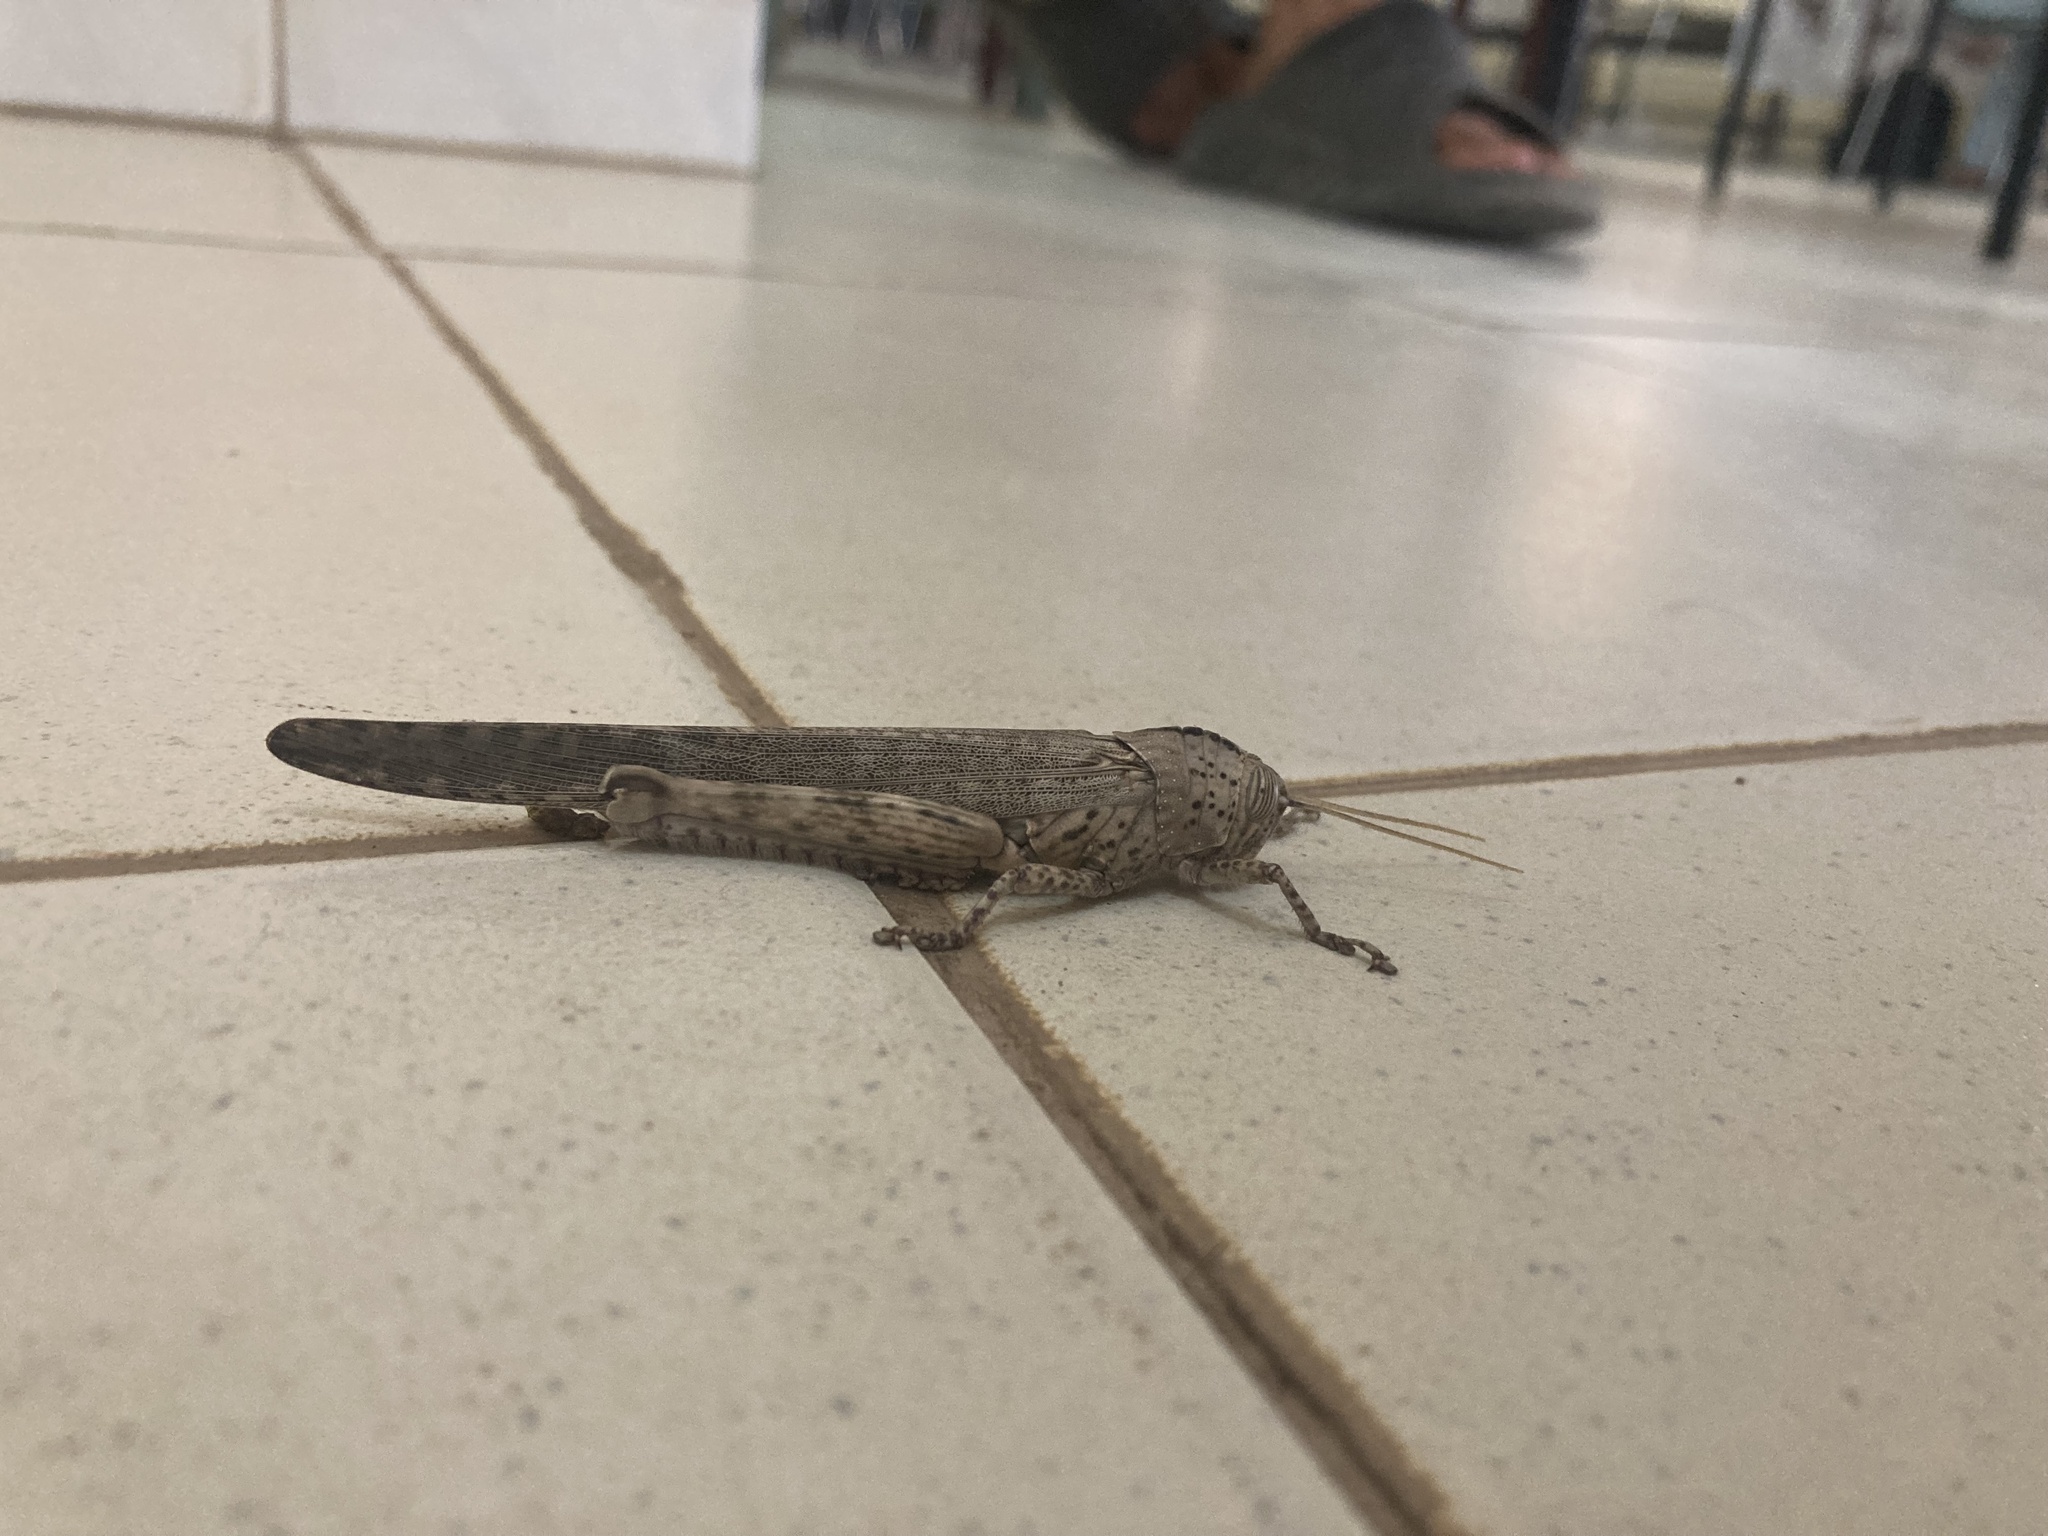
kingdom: Animalia
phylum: Arthropoda
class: Insecta
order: Orthoptera
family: Acrididae
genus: Orthacanthacris
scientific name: Orthacanthacris humilicrus
